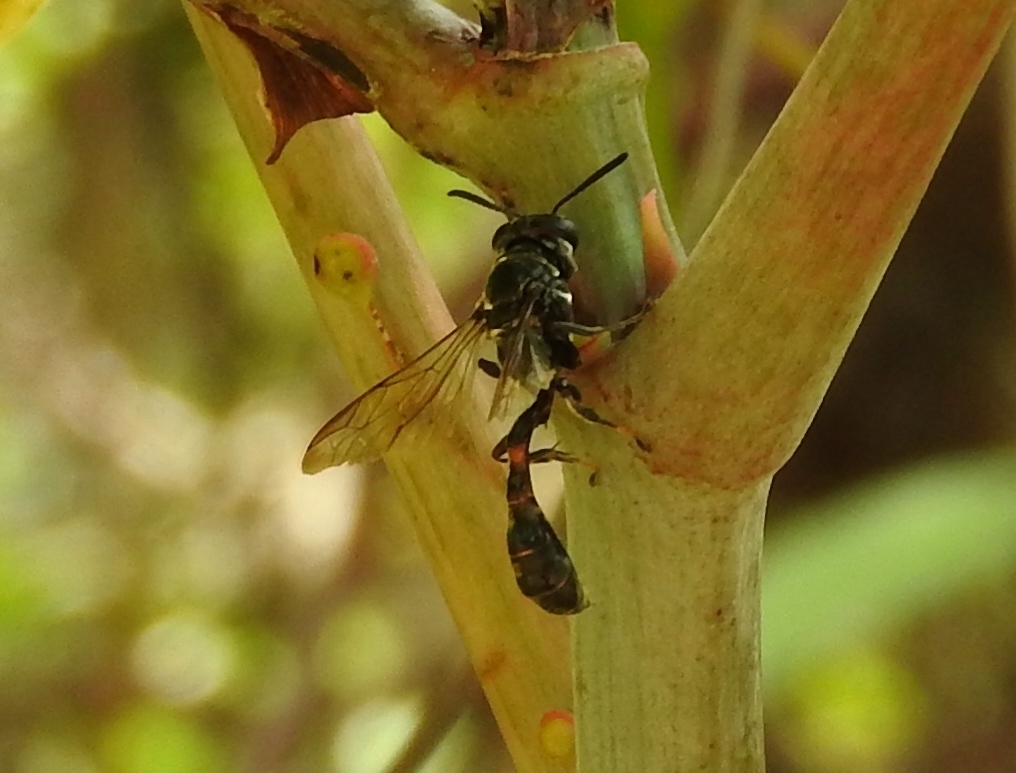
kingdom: Animalia
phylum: Arthropoda
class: Insecta
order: Hymenoptera
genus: Trypargilum
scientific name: Trypargilum
